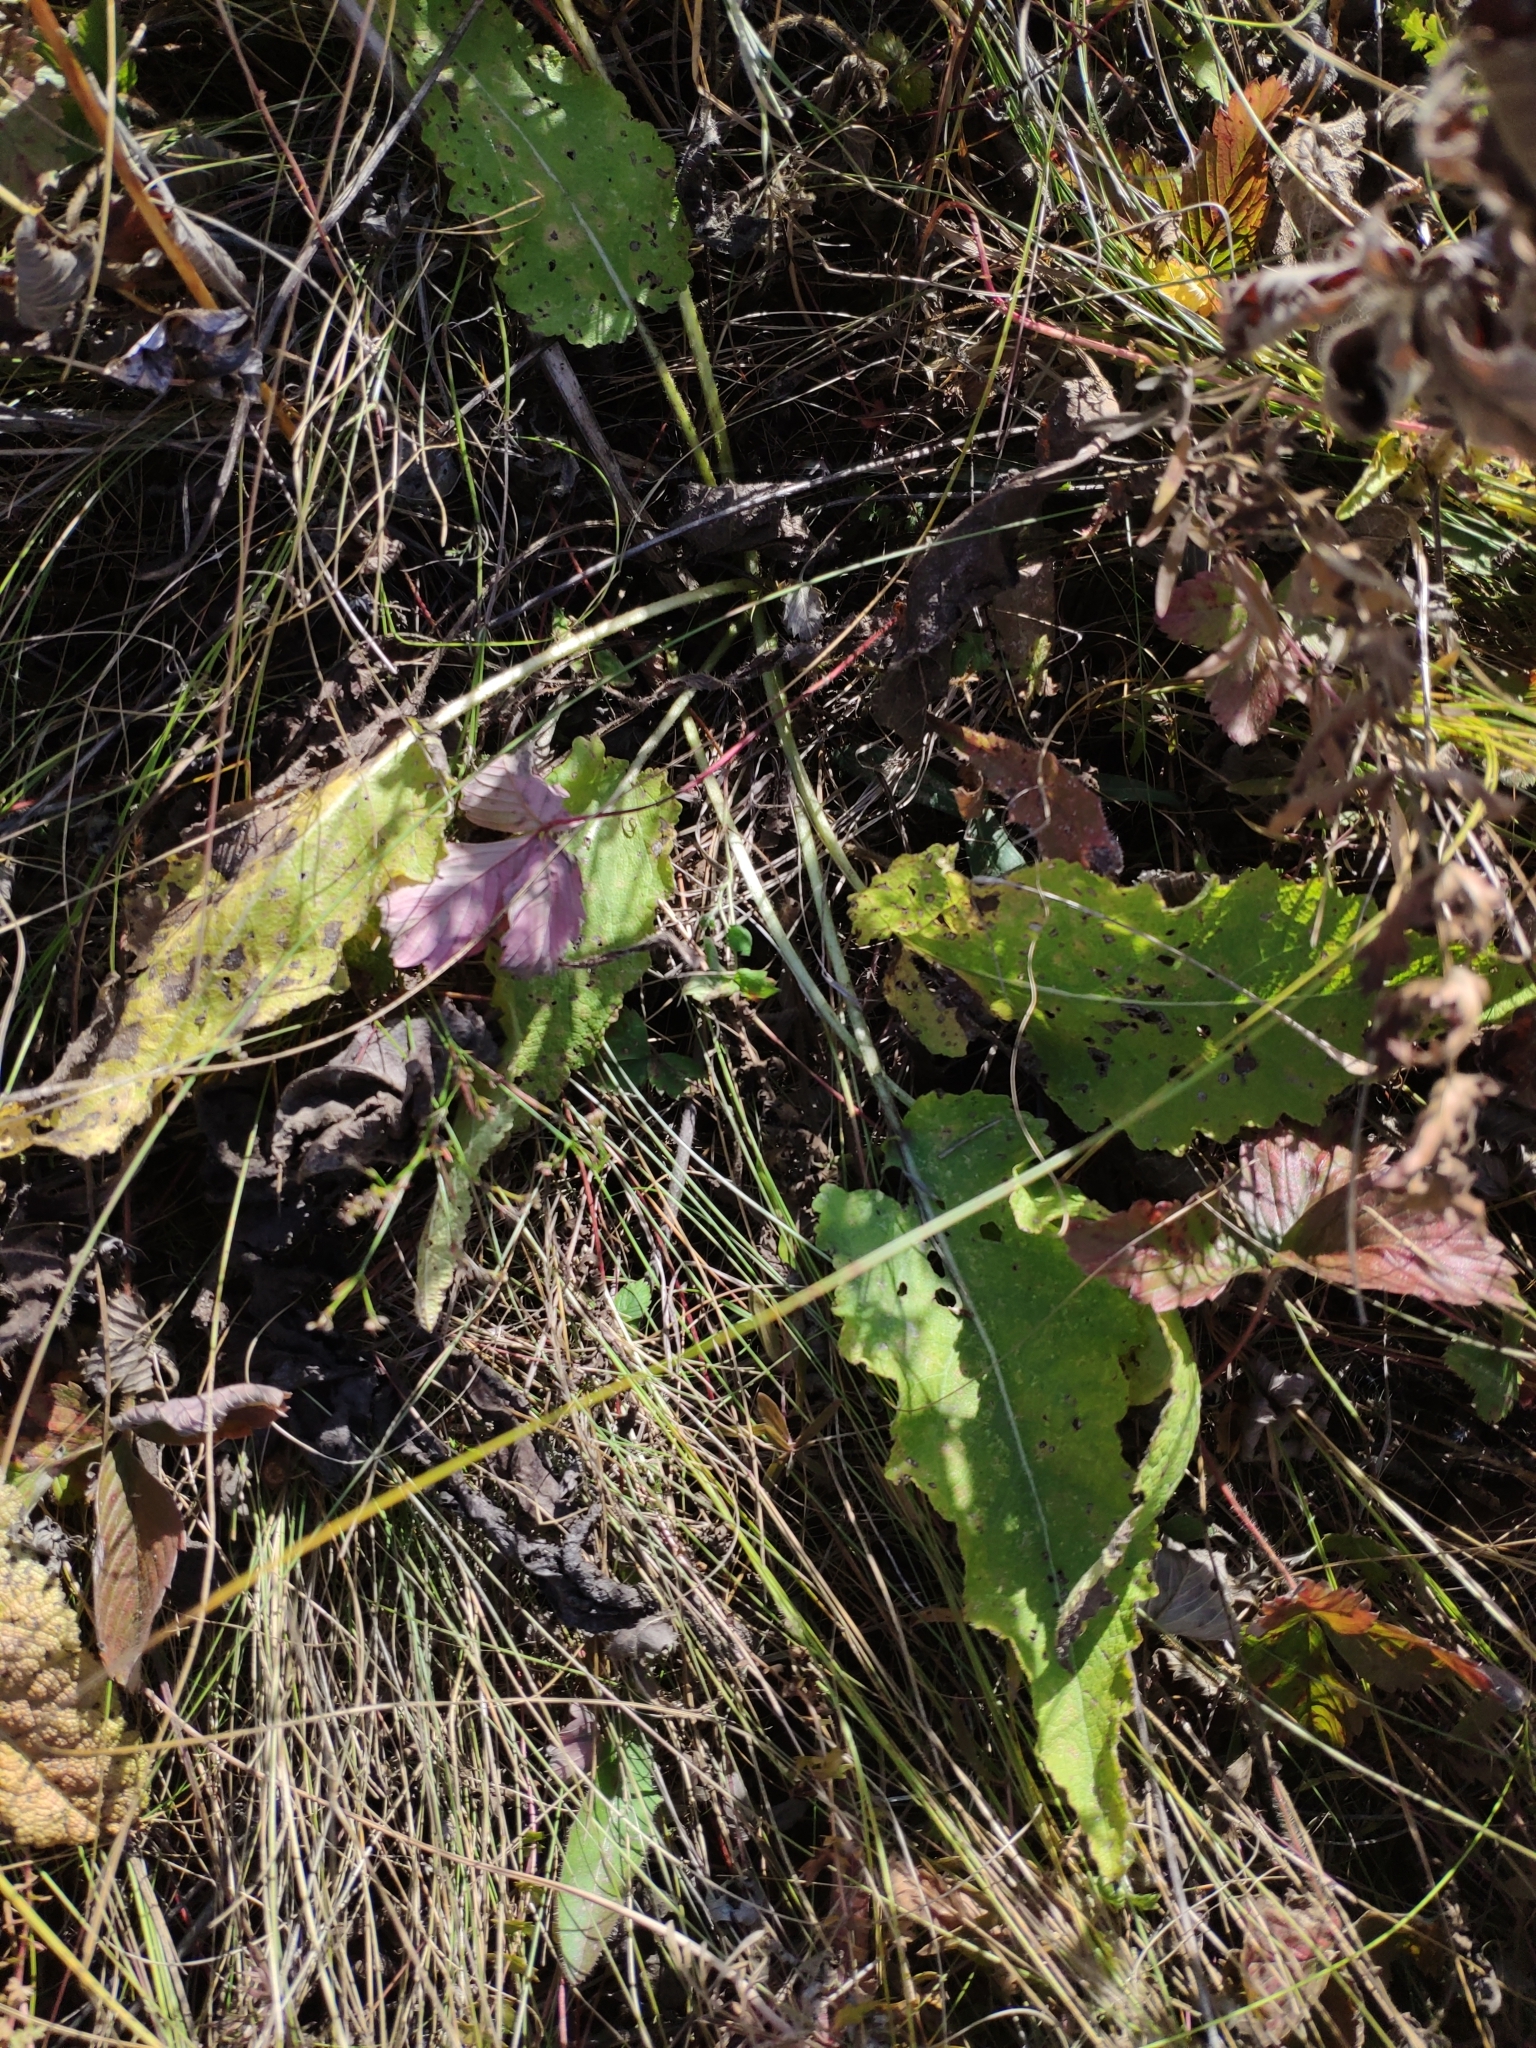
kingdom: Plantae
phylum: Tracheophyta
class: Magnoliopsida
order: Lamiales
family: Lamiaceae
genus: Salvia
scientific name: Salvia pratensis
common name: Meadow sage
